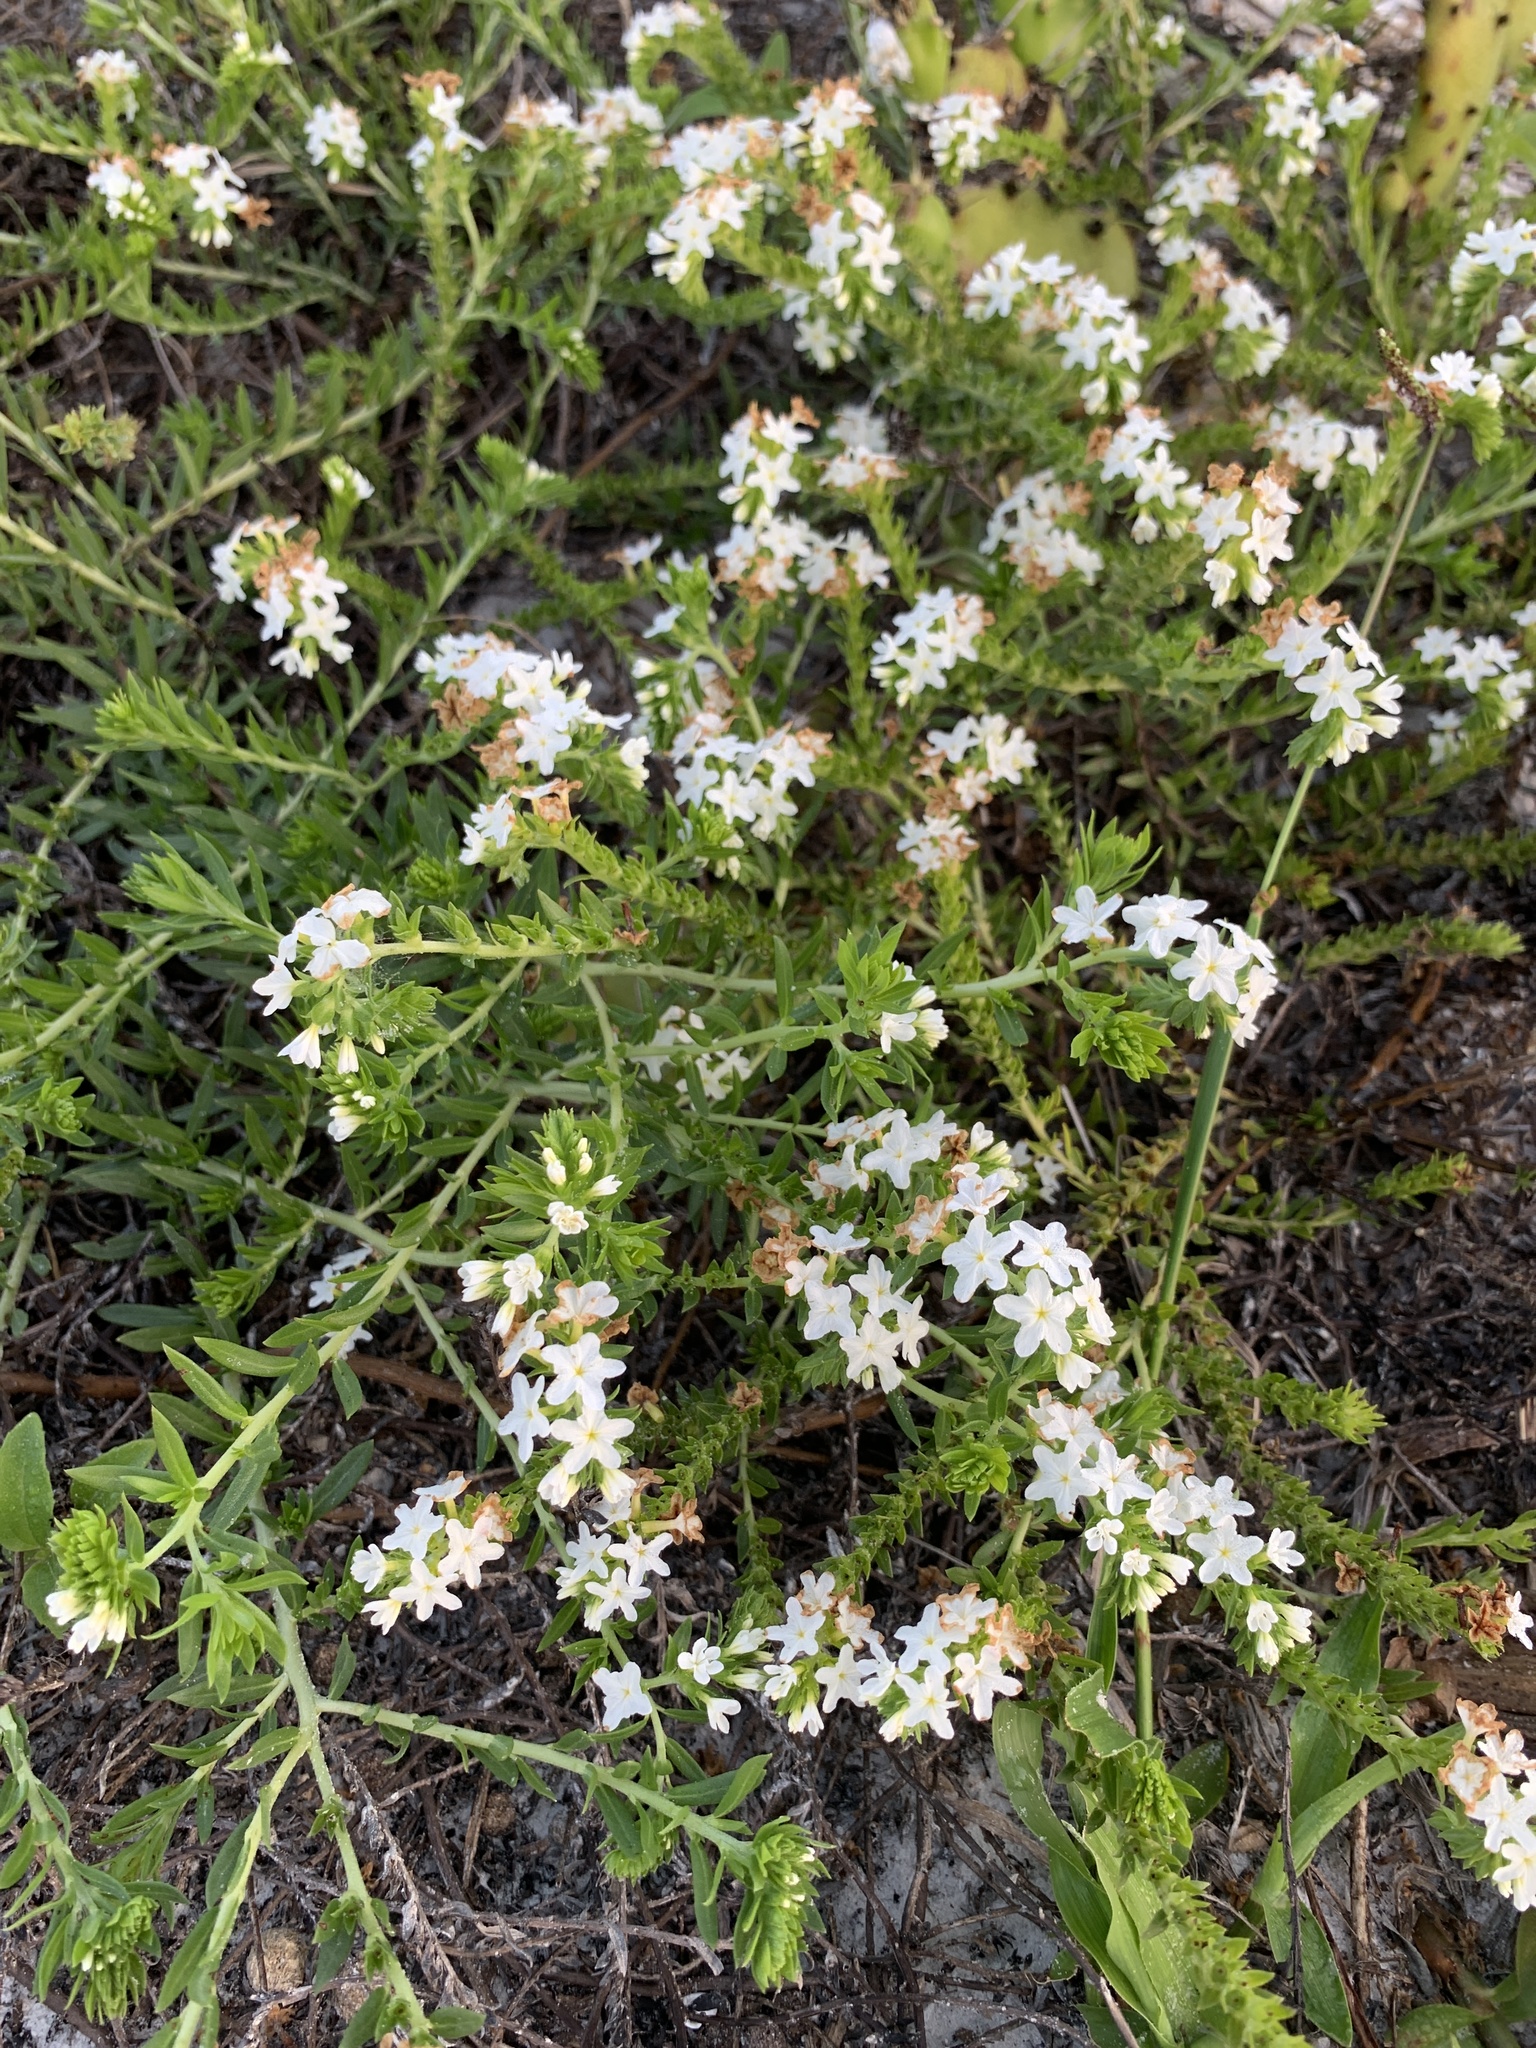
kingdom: Plantae
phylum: Tracheophyta
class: Magnoliopsida
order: Boraginales
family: Heliotropiaceae
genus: Euploca
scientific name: Euploca polyphylla
